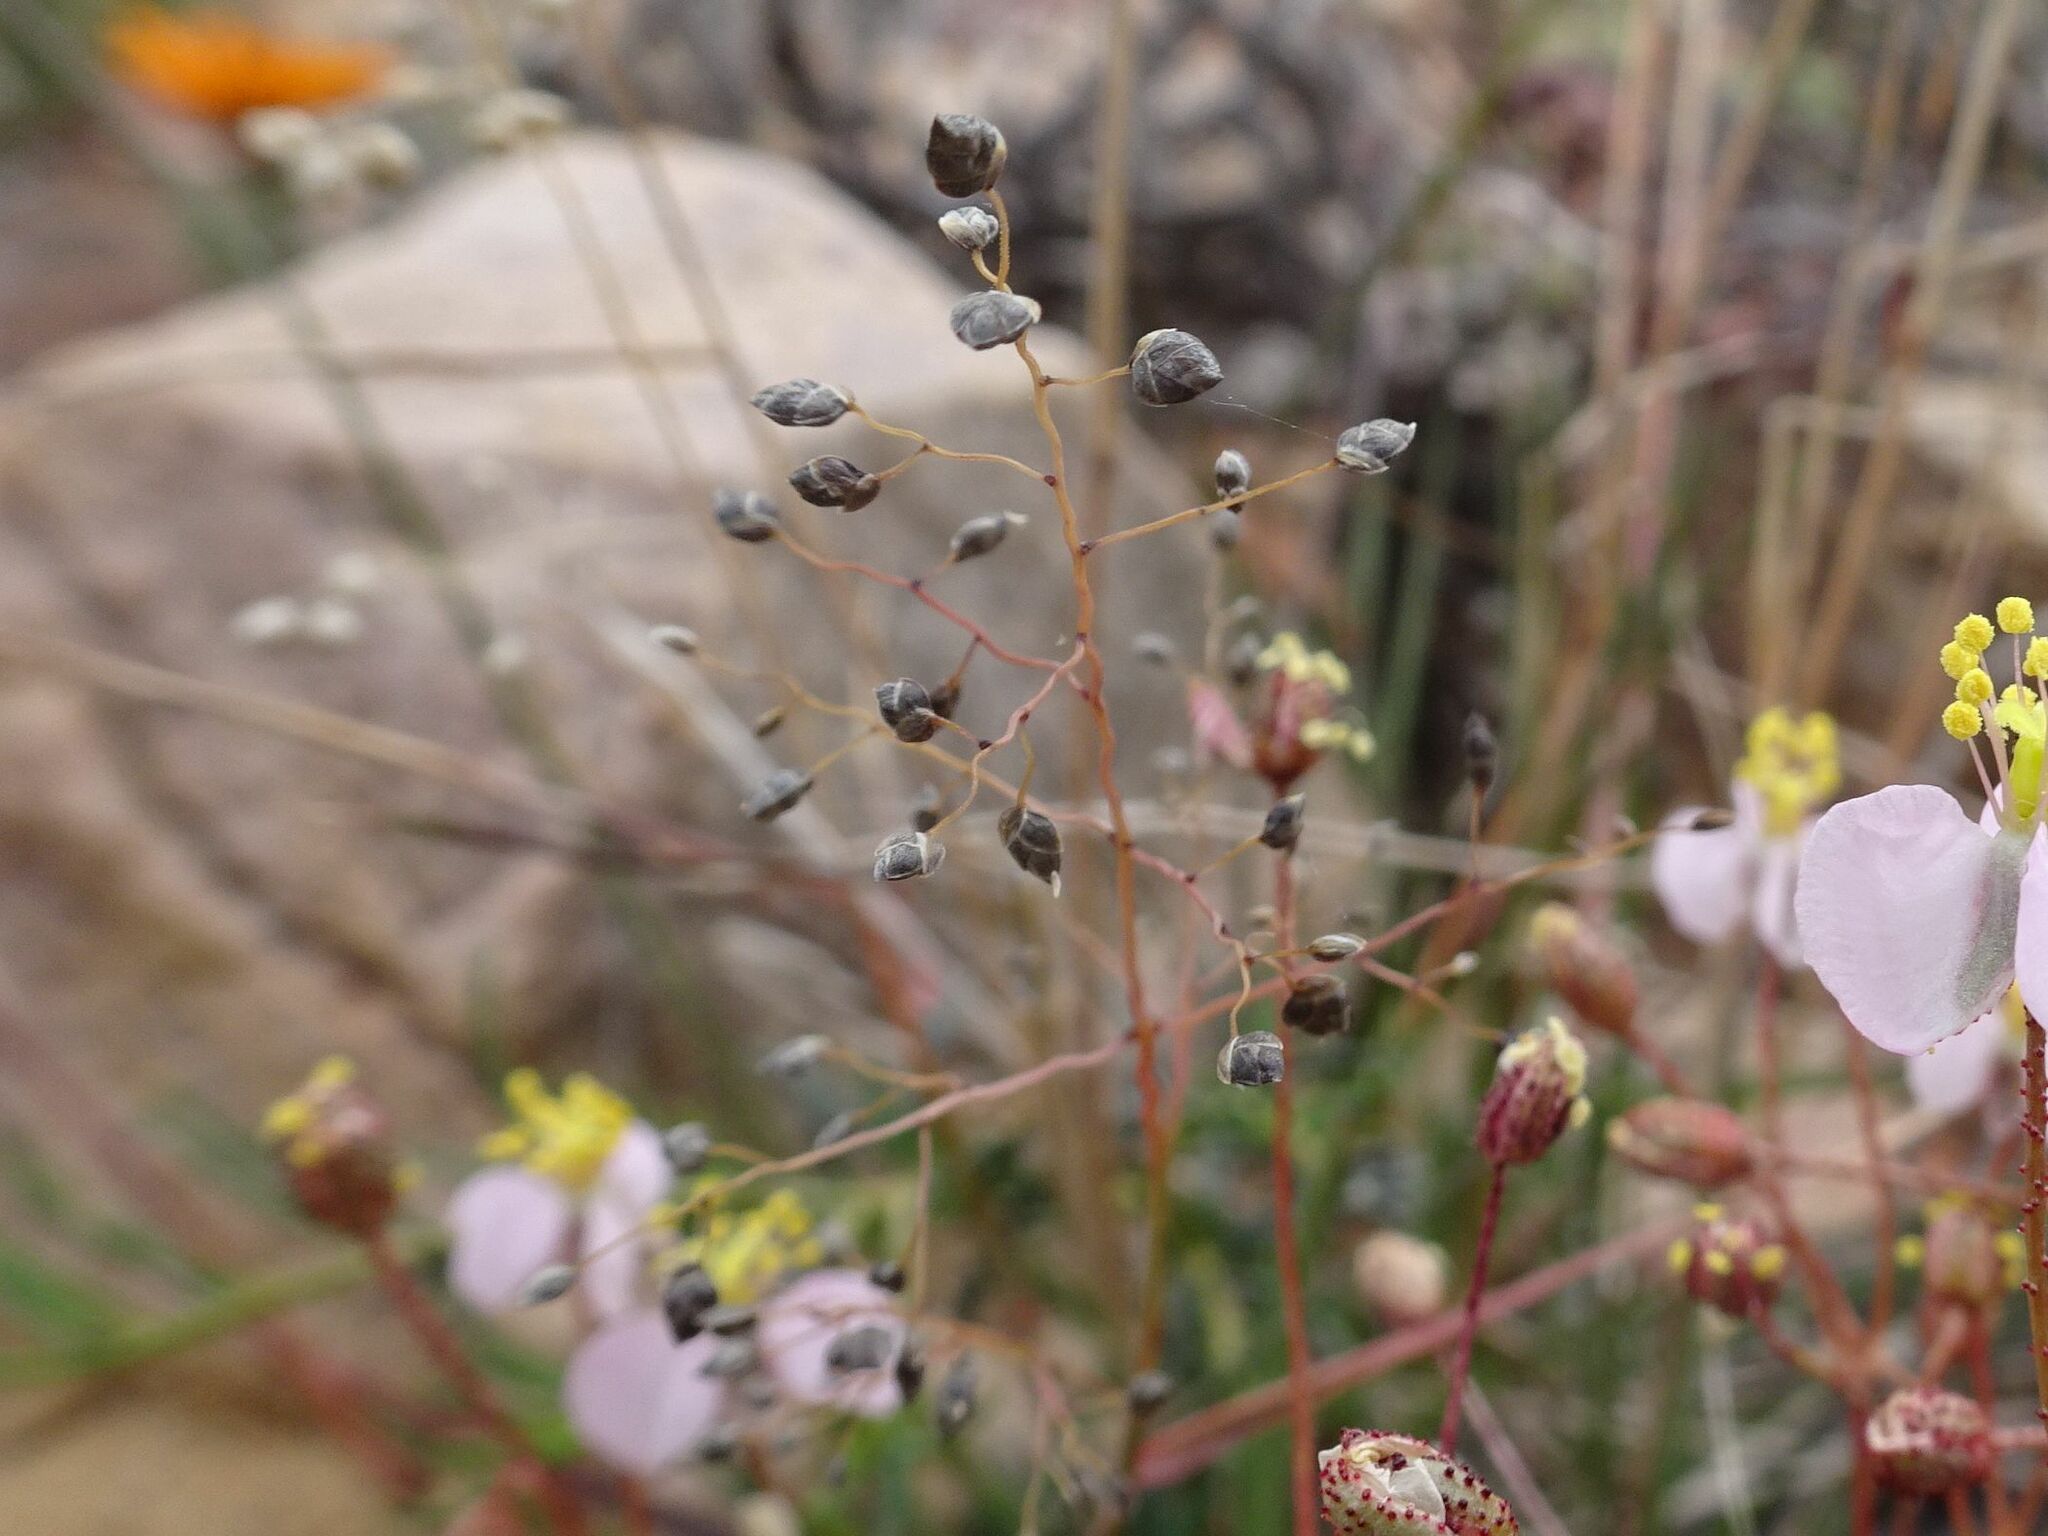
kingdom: Plantae
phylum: Tracheophyta
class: Liliopsida
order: Poales
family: Poaceae
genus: Eragrostis
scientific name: Eragrostis obtusa
